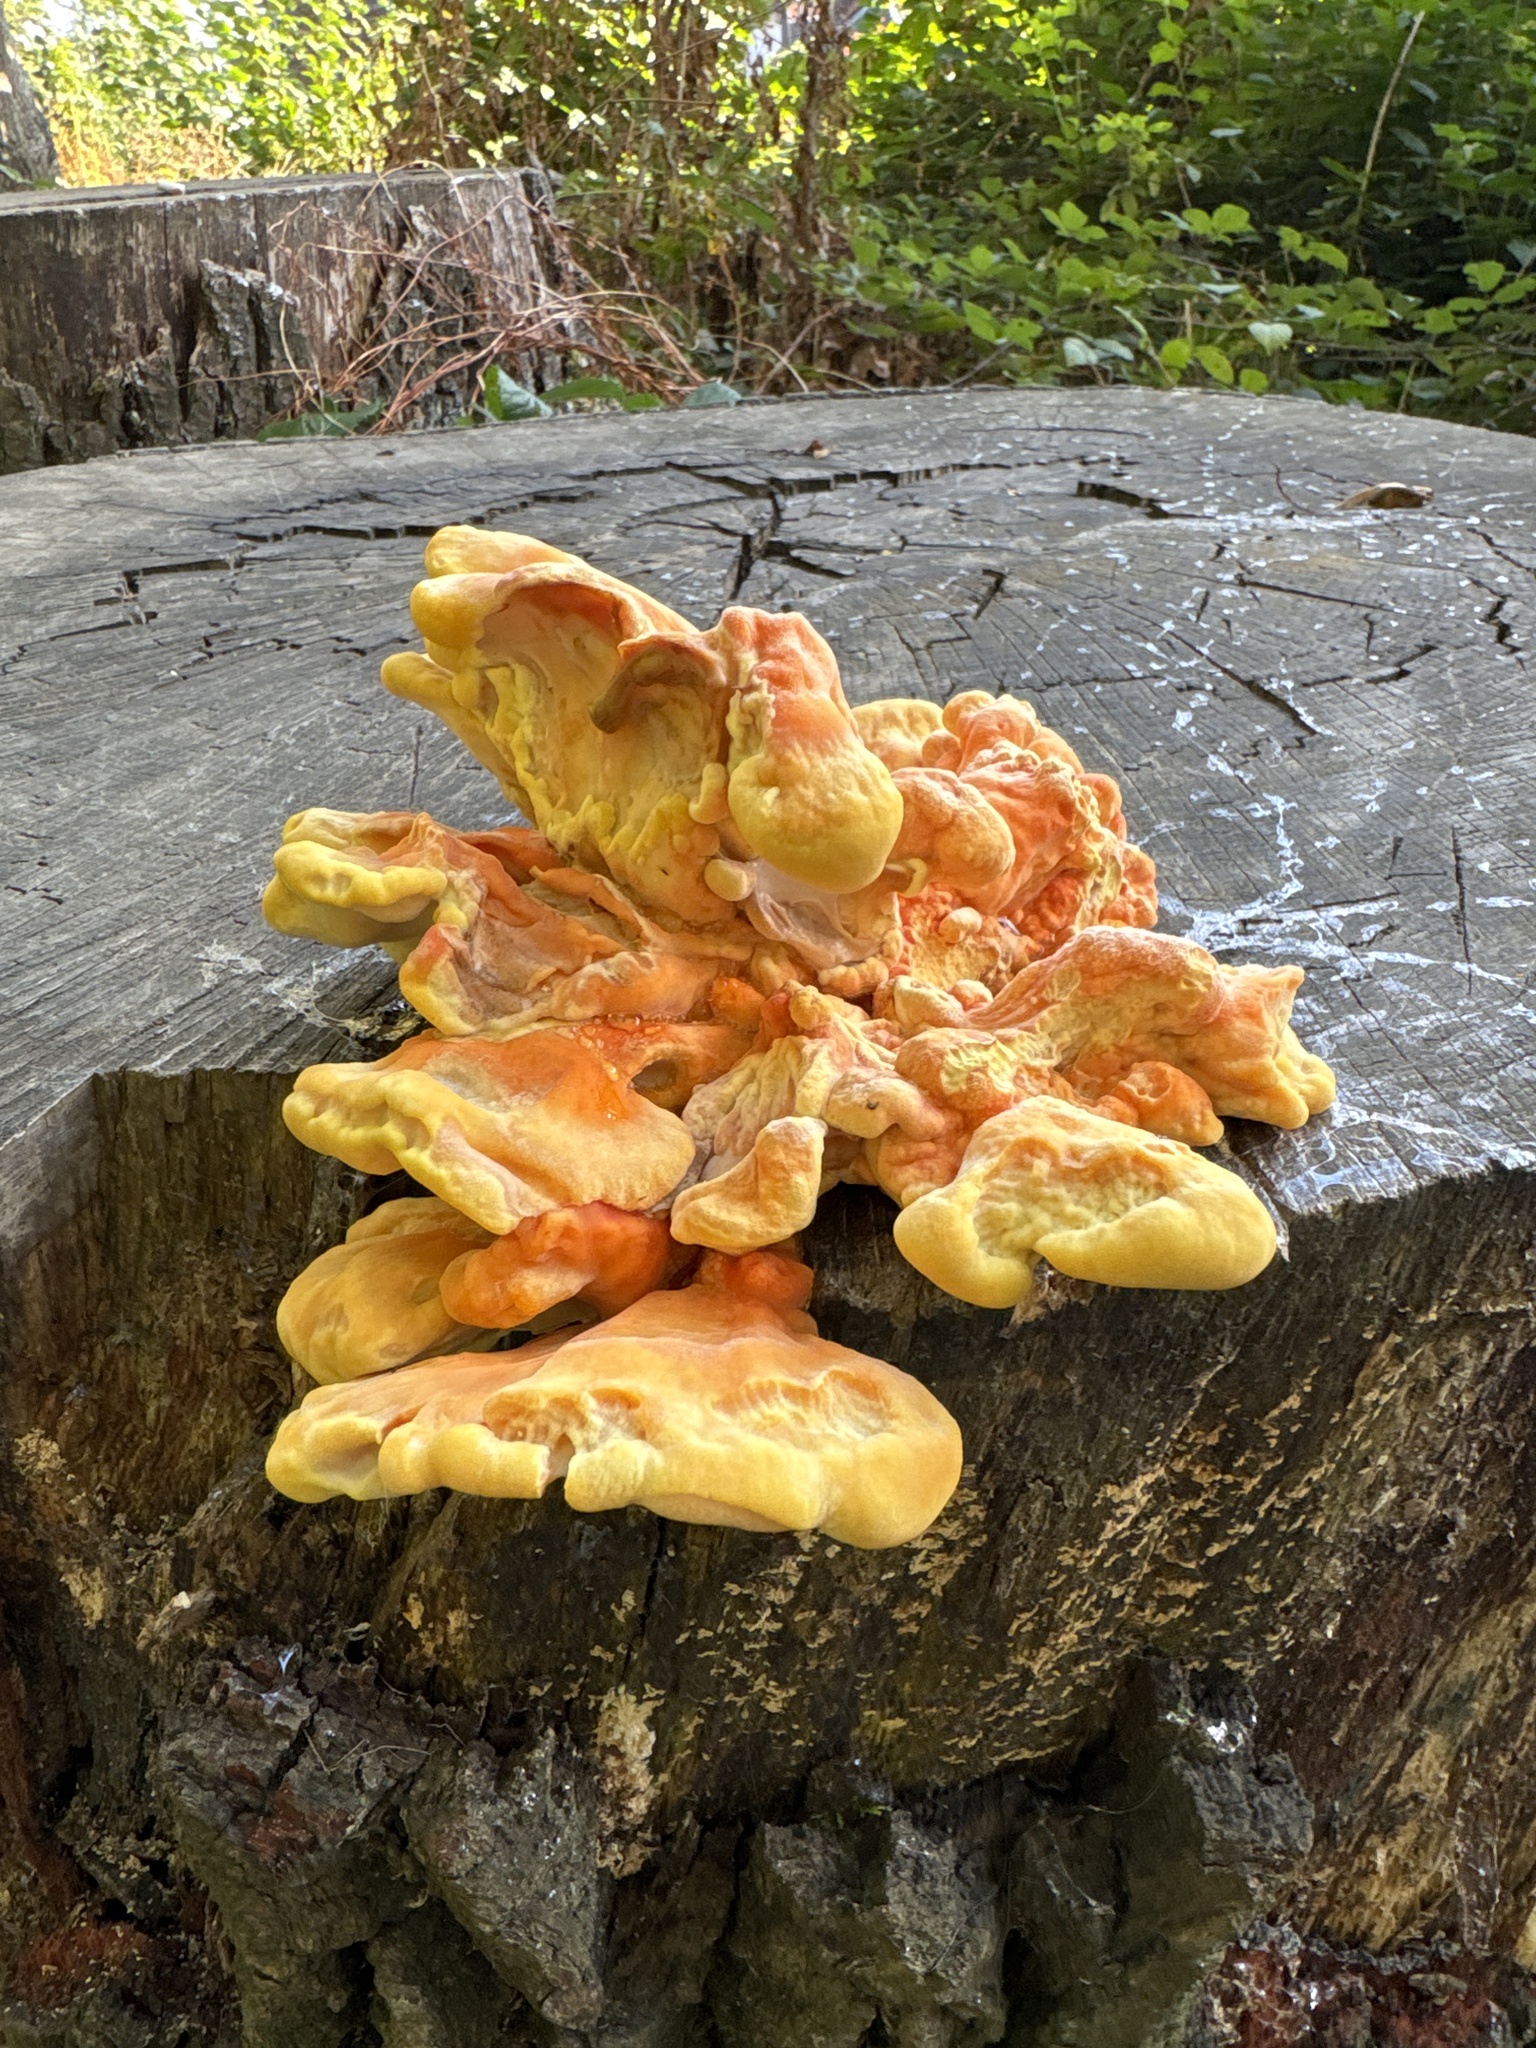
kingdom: Fungi
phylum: Basidiomycota
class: Agaricomycetes
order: Polyporales
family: Laetiporaceae
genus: Laetiporus
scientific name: Laetiporus sulphureus
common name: Chicken of the woods
